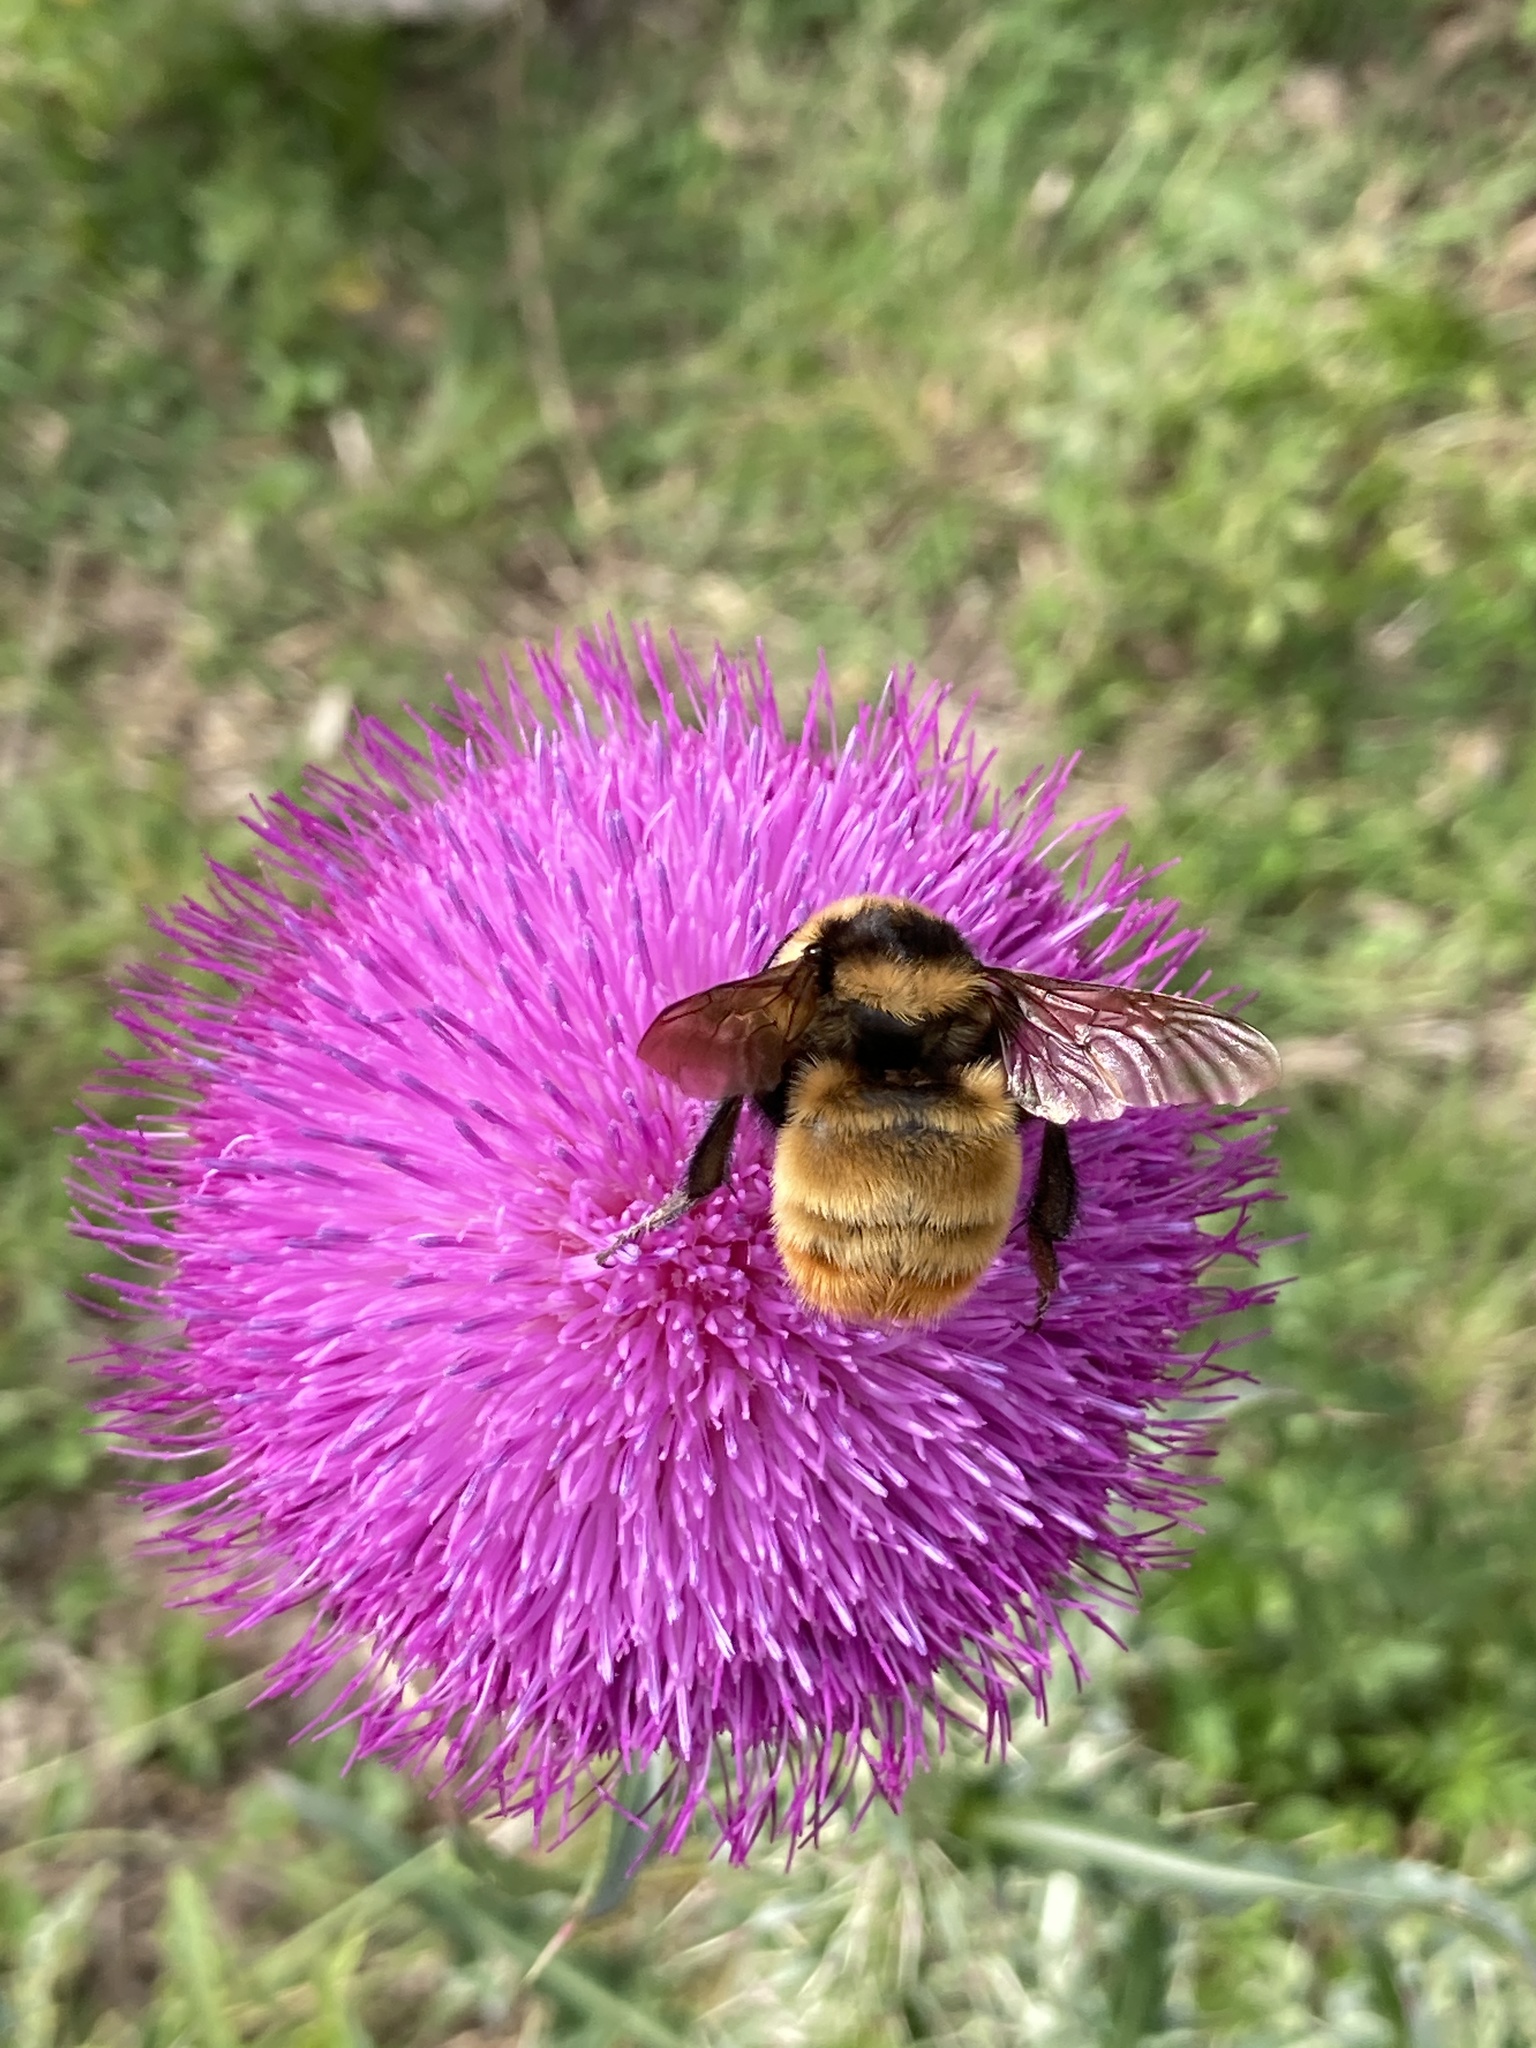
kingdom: Animalia
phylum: Arthropoda
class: Insecta
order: Hymenoptera
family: Apidae
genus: Bombus
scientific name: Bombus opifex
